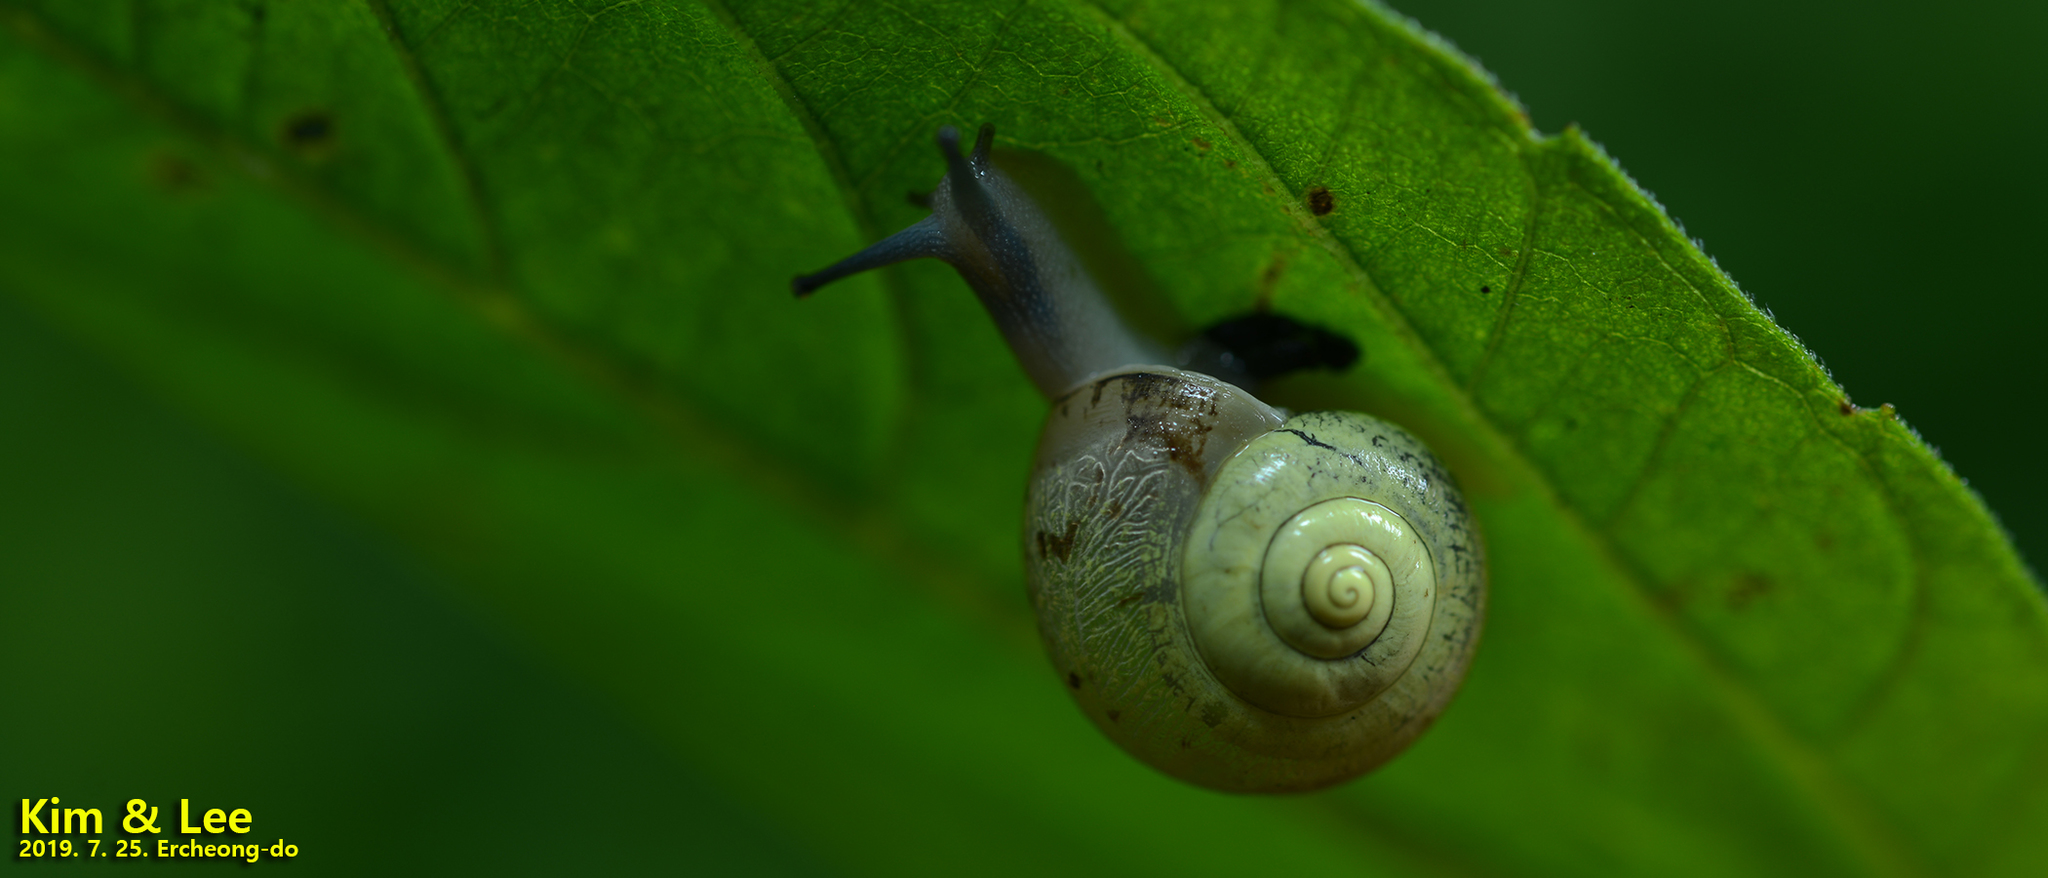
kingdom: Animalia
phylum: Mollusca
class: Gastropoda
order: Stylommatophora
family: Camaenidae
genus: Chosenelix
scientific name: Chosenelix problematica
